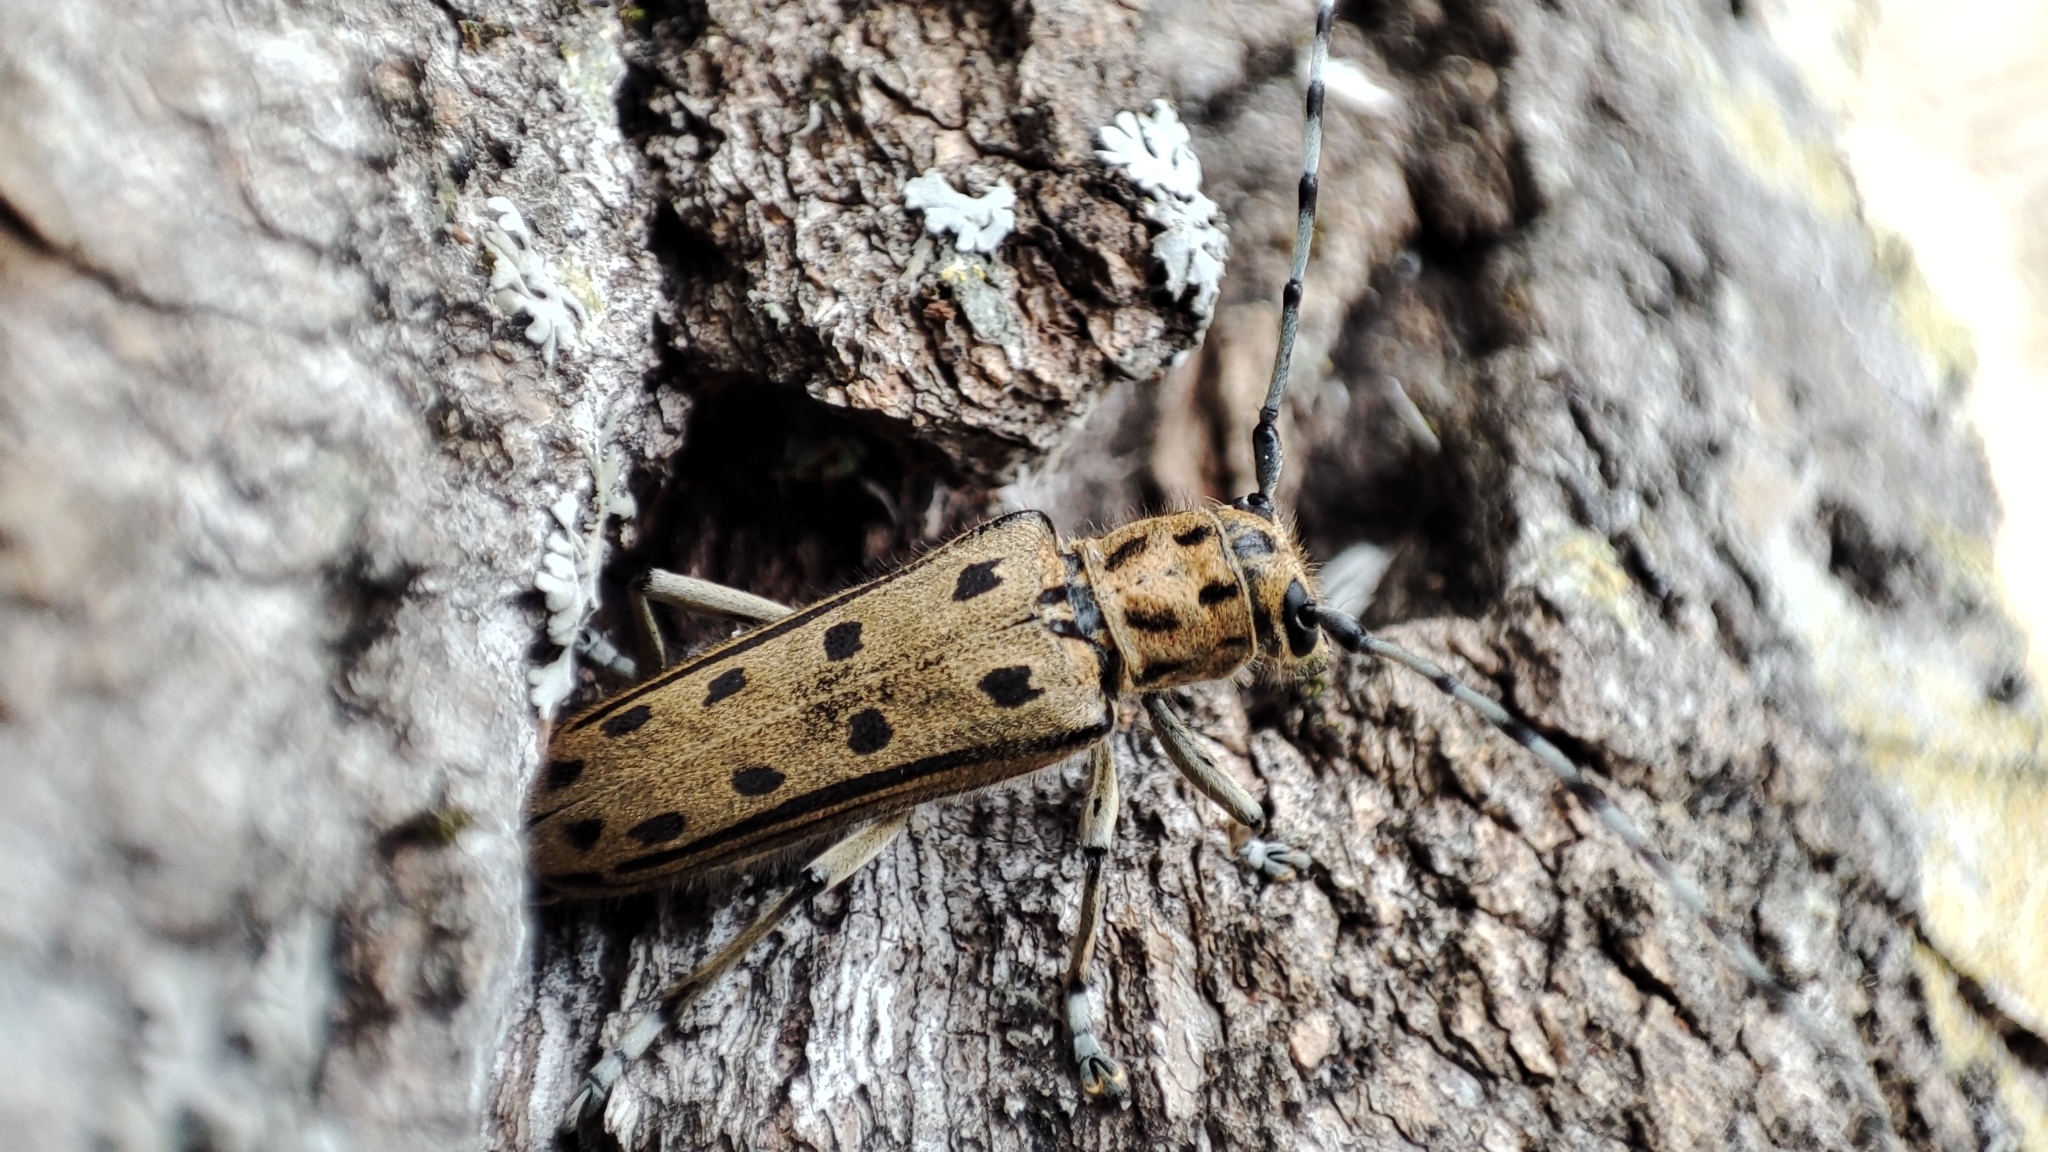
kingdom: Animalia
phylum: Arthropoda
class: Insecta
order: Coleoptera
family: Cerambycidae
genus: Saperda
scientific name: Saperda alberti
